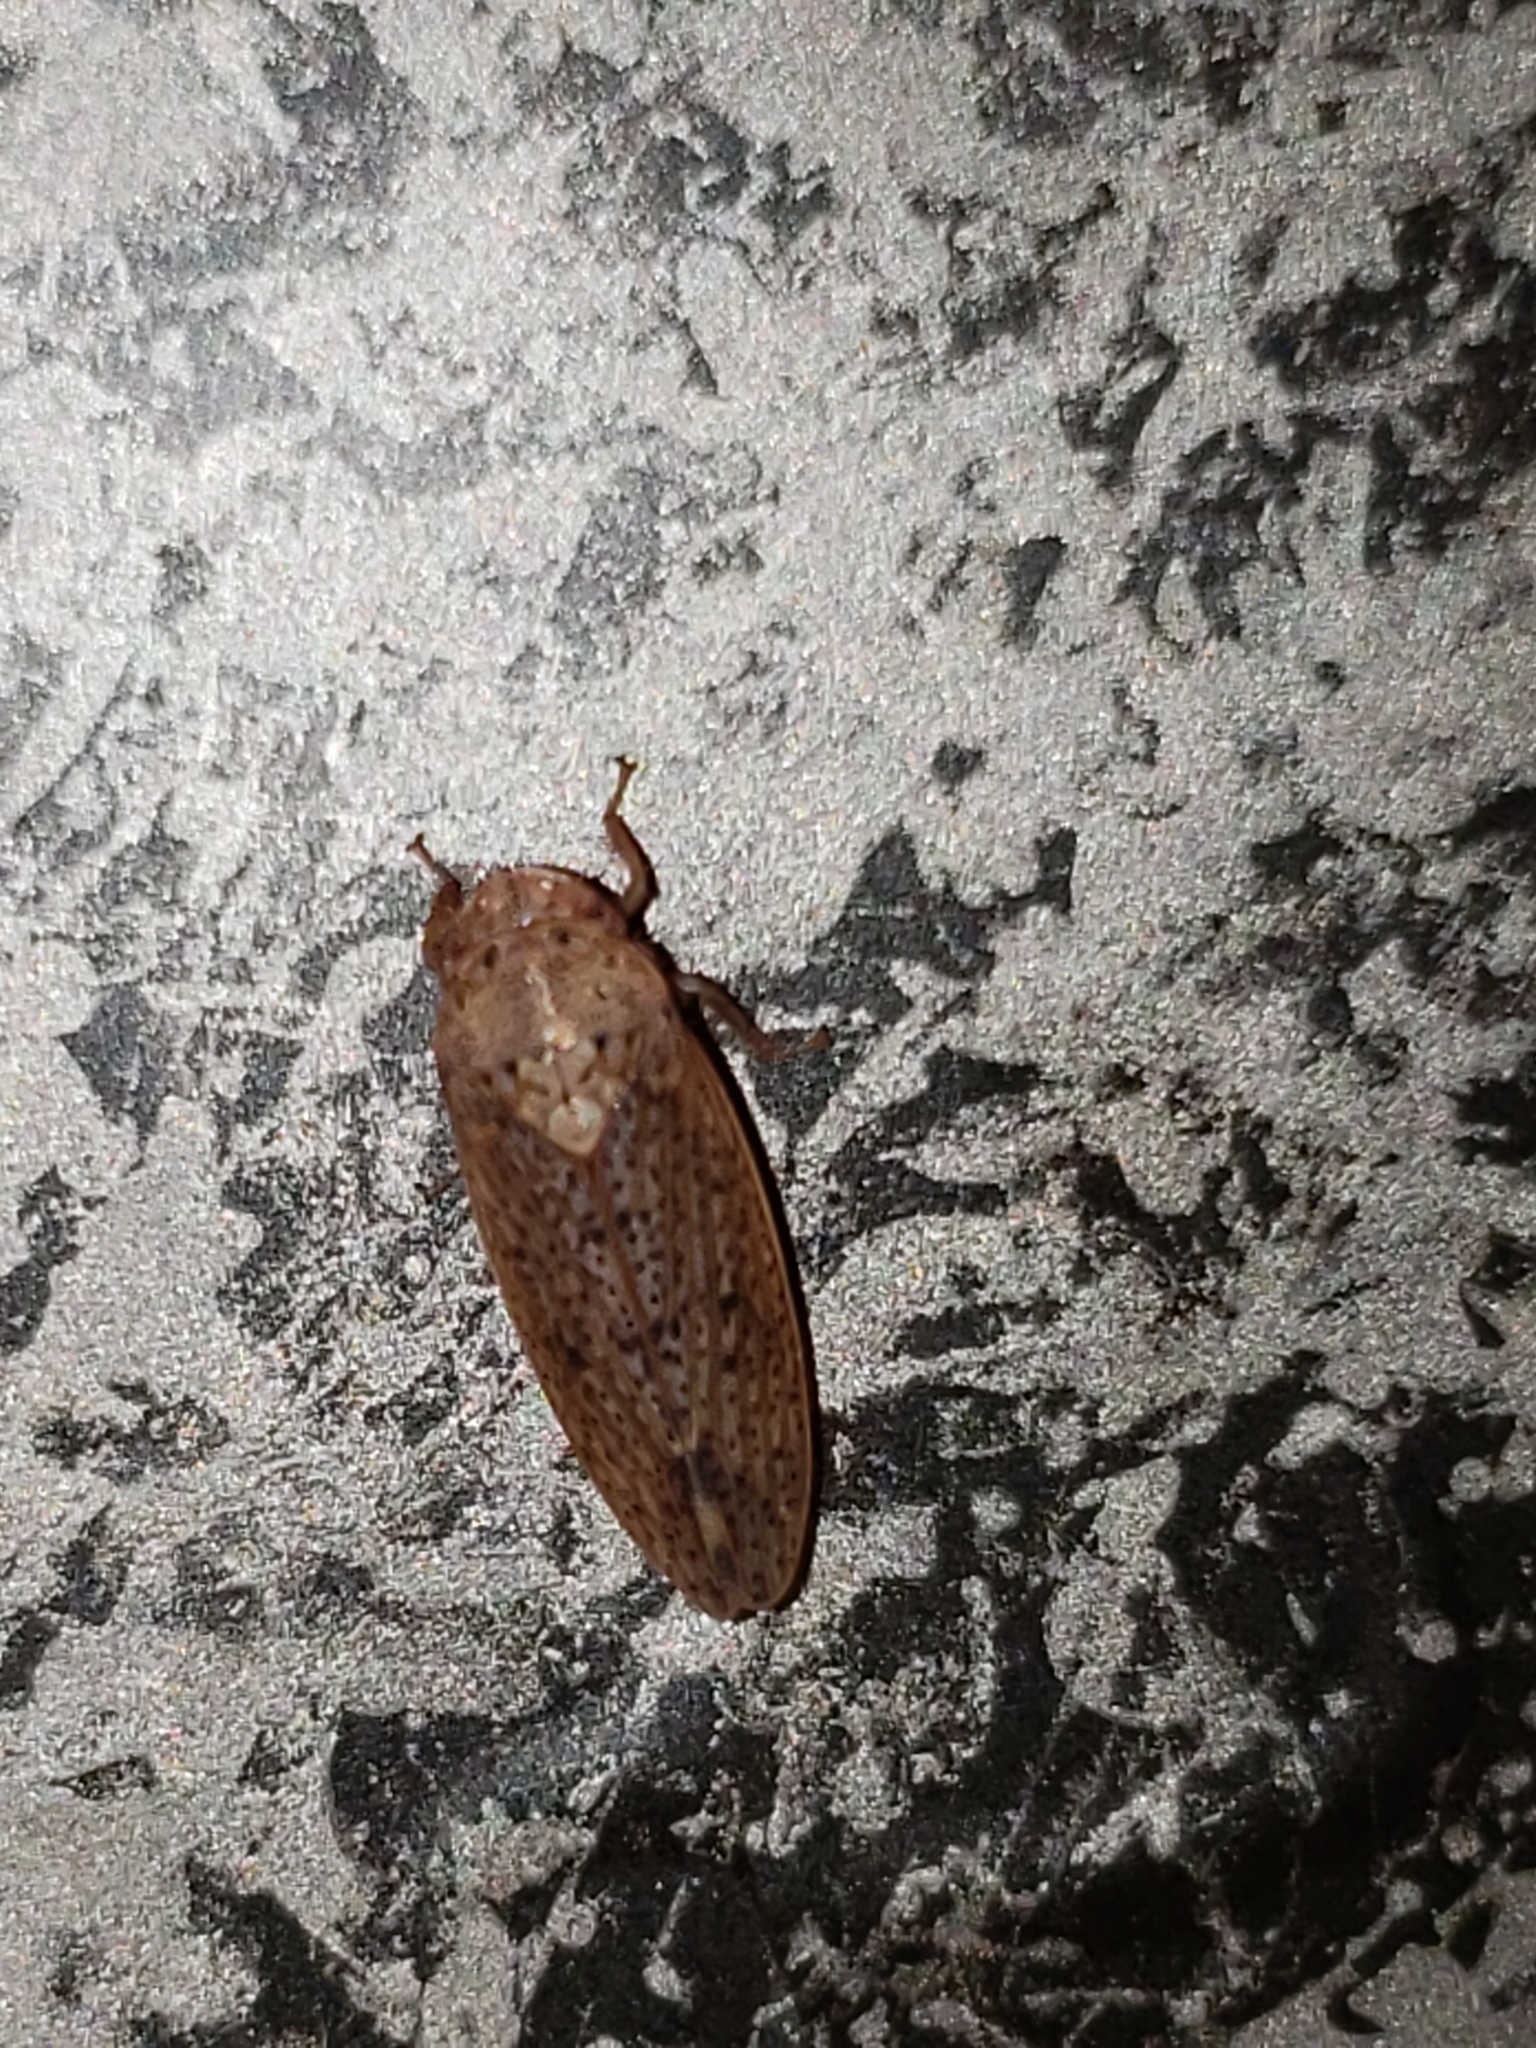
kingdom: Animalia
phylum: Arthropoda
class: Insecta
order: Hemiptera
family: Cicadellidae
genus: Ponana
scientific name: Ponana puncticollis
